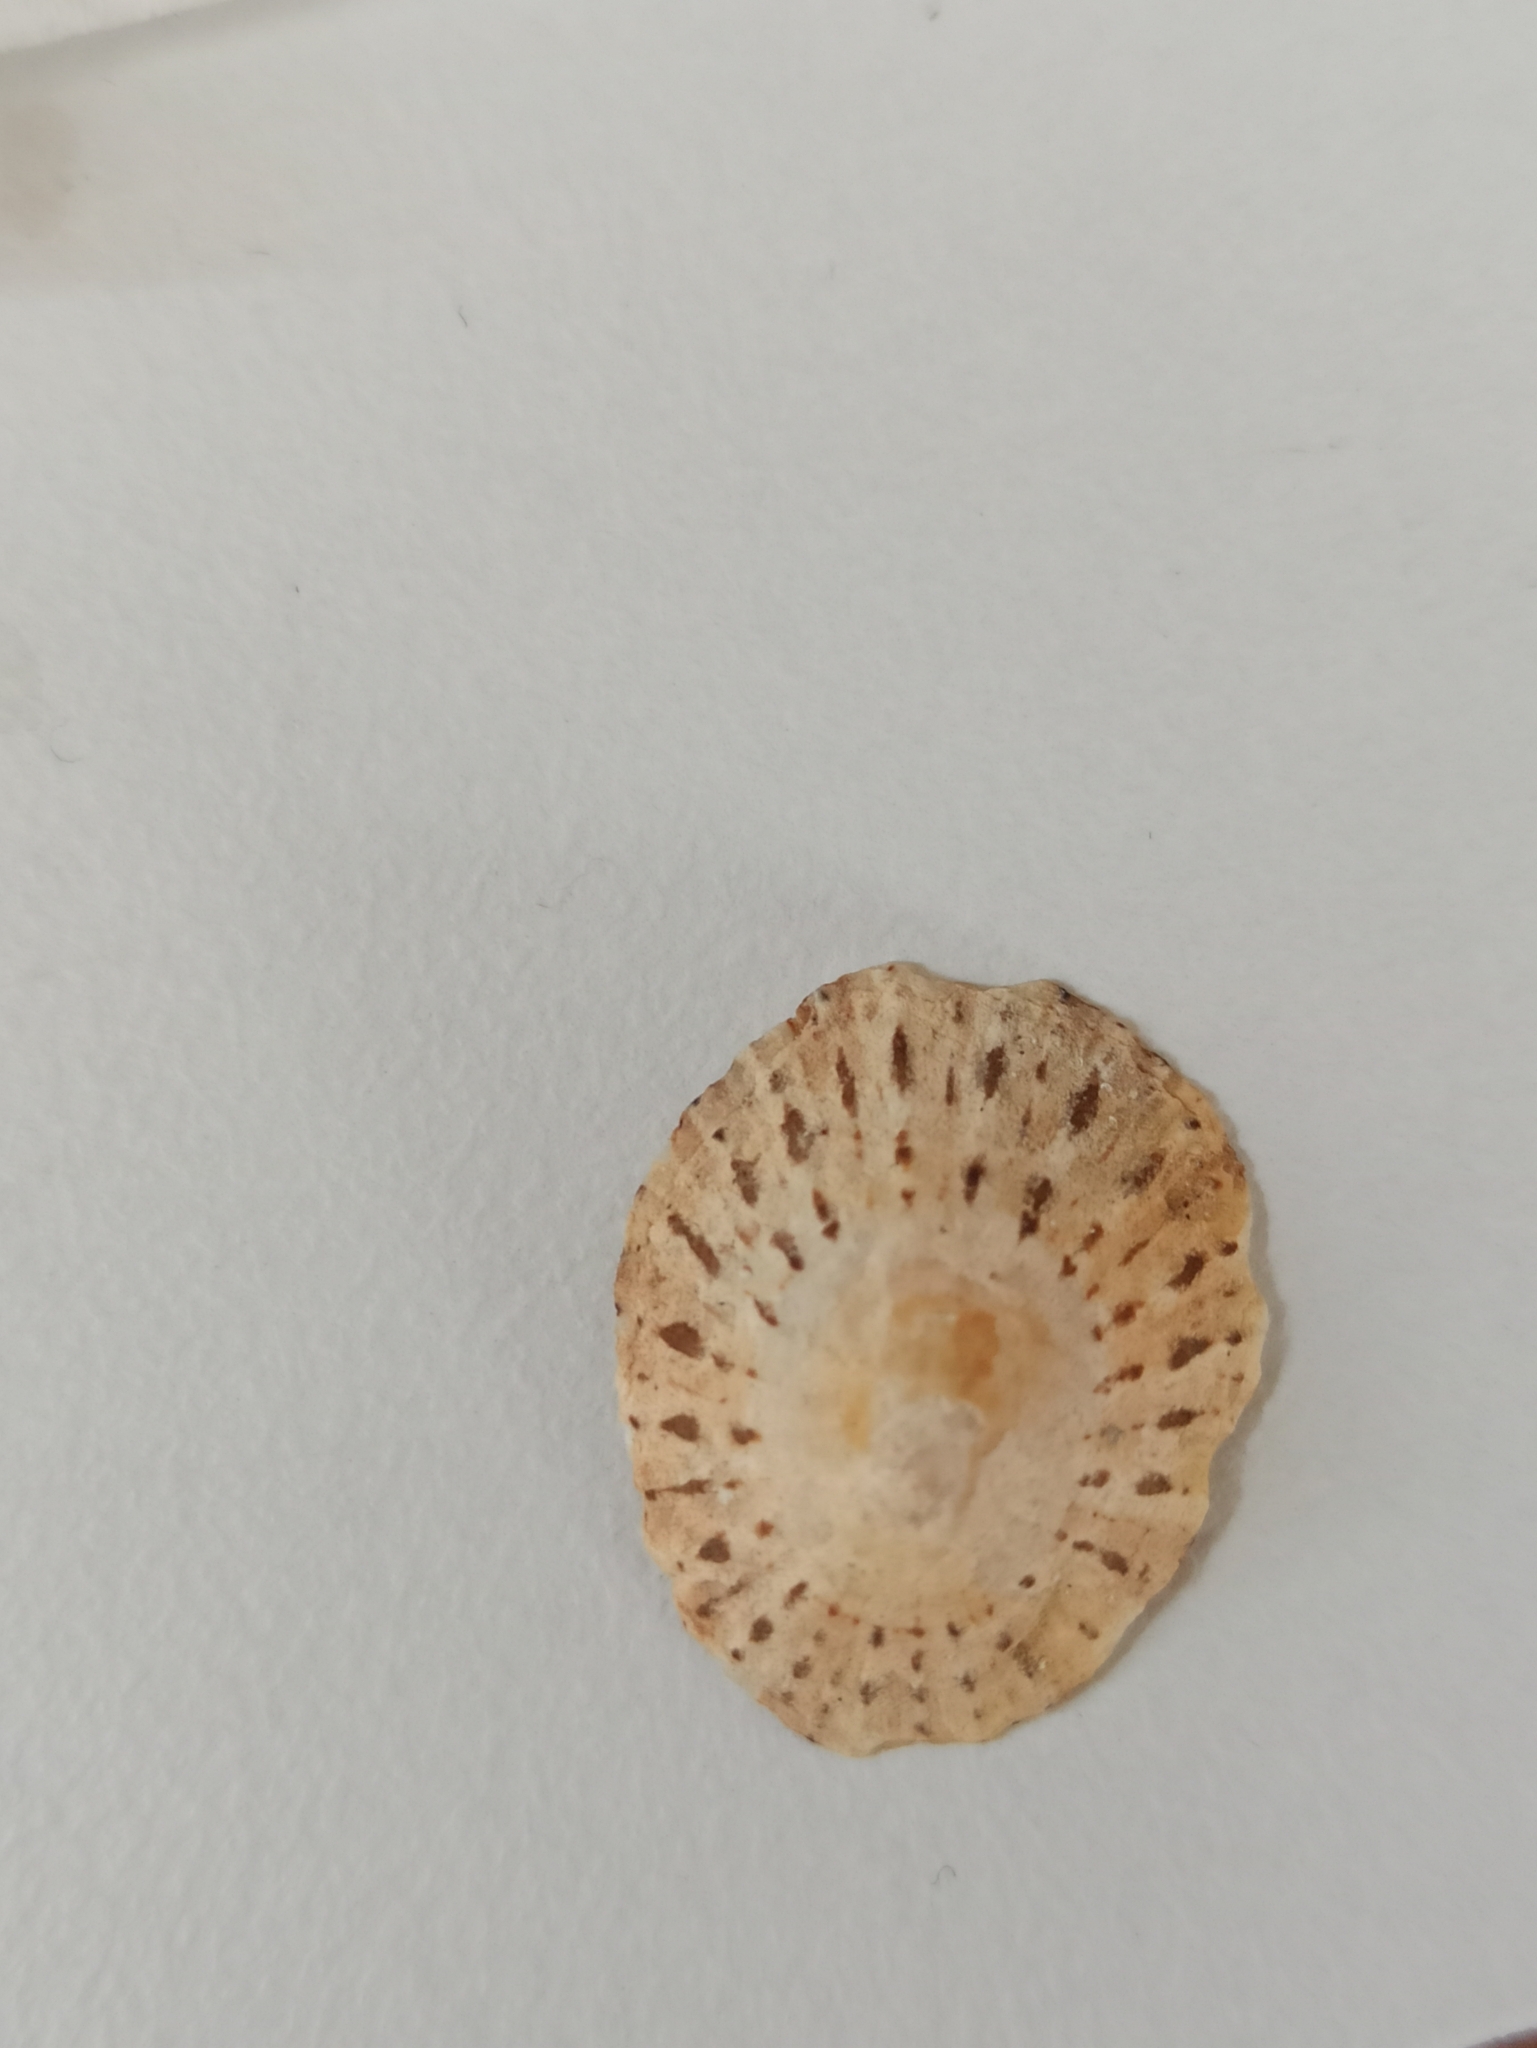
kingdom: Animalia
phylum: Mollusca
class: Gastropoda
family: Patellidae
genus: Patella
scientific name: Patella rustica
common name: Lusitanian limpet
